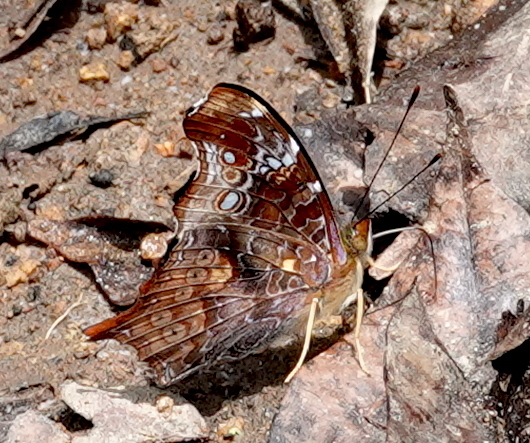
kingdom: Animalia
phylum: Arthropoda
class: Insecta
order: Lepidoptera
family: Nymphalidae
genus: Hypanartia
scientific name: Hypanartia kefersteini
